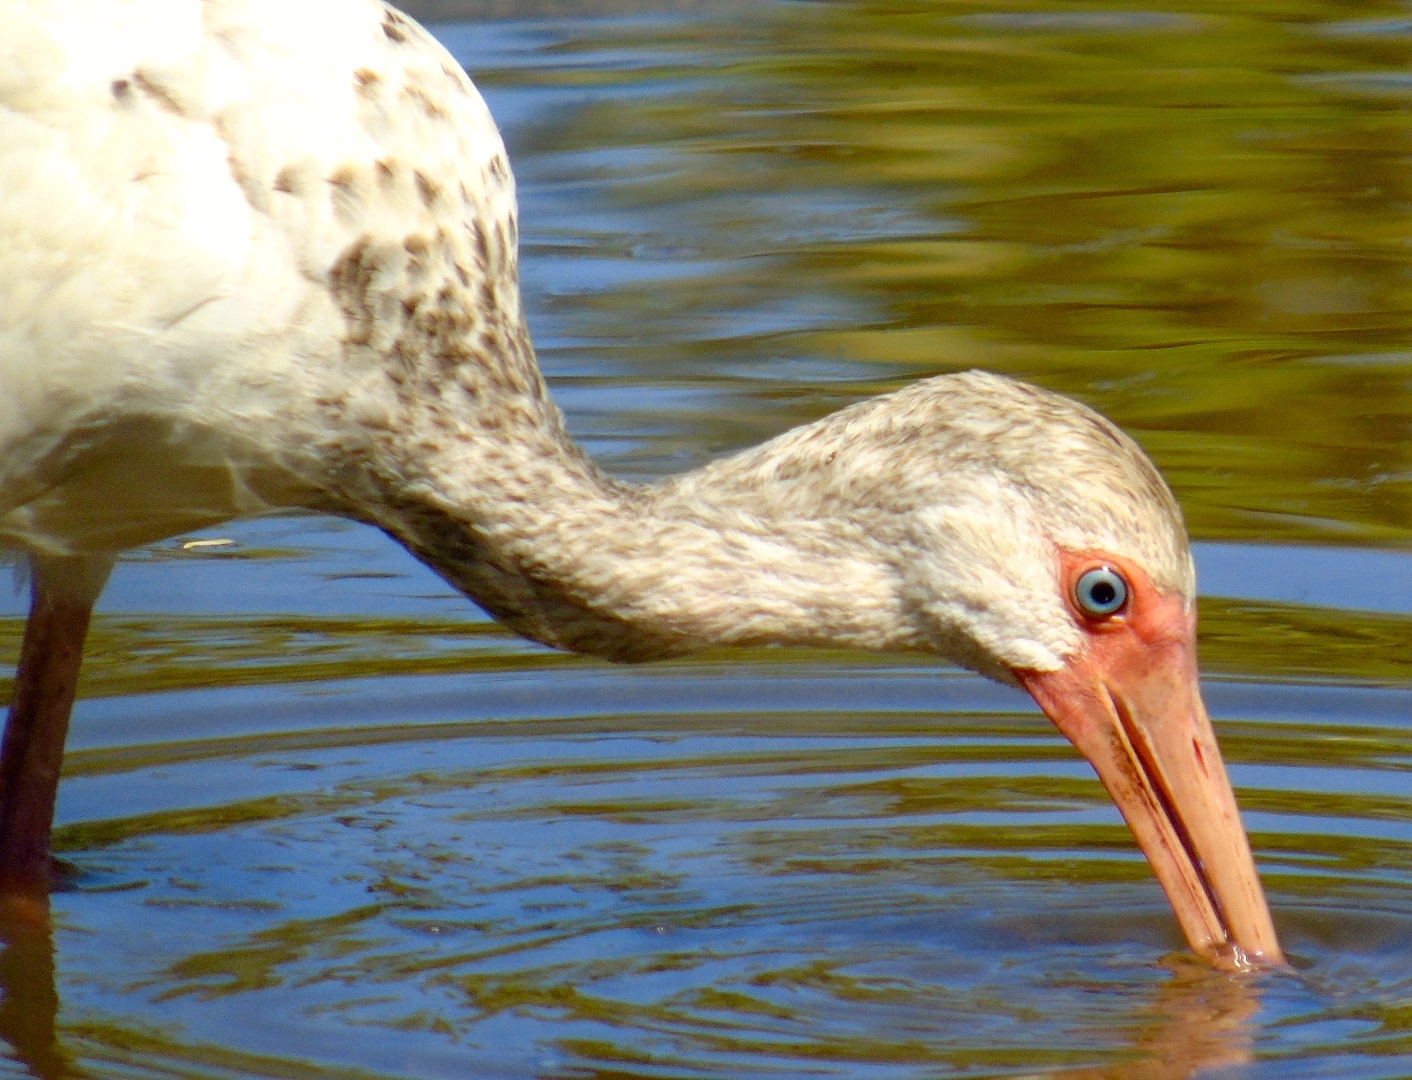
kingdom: Animalia
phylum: Chordata
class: Aves
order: Pelecaniformes
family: Threskiornithidae
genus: Eudocimus
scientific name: Eudocimus albus
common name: White ibis
